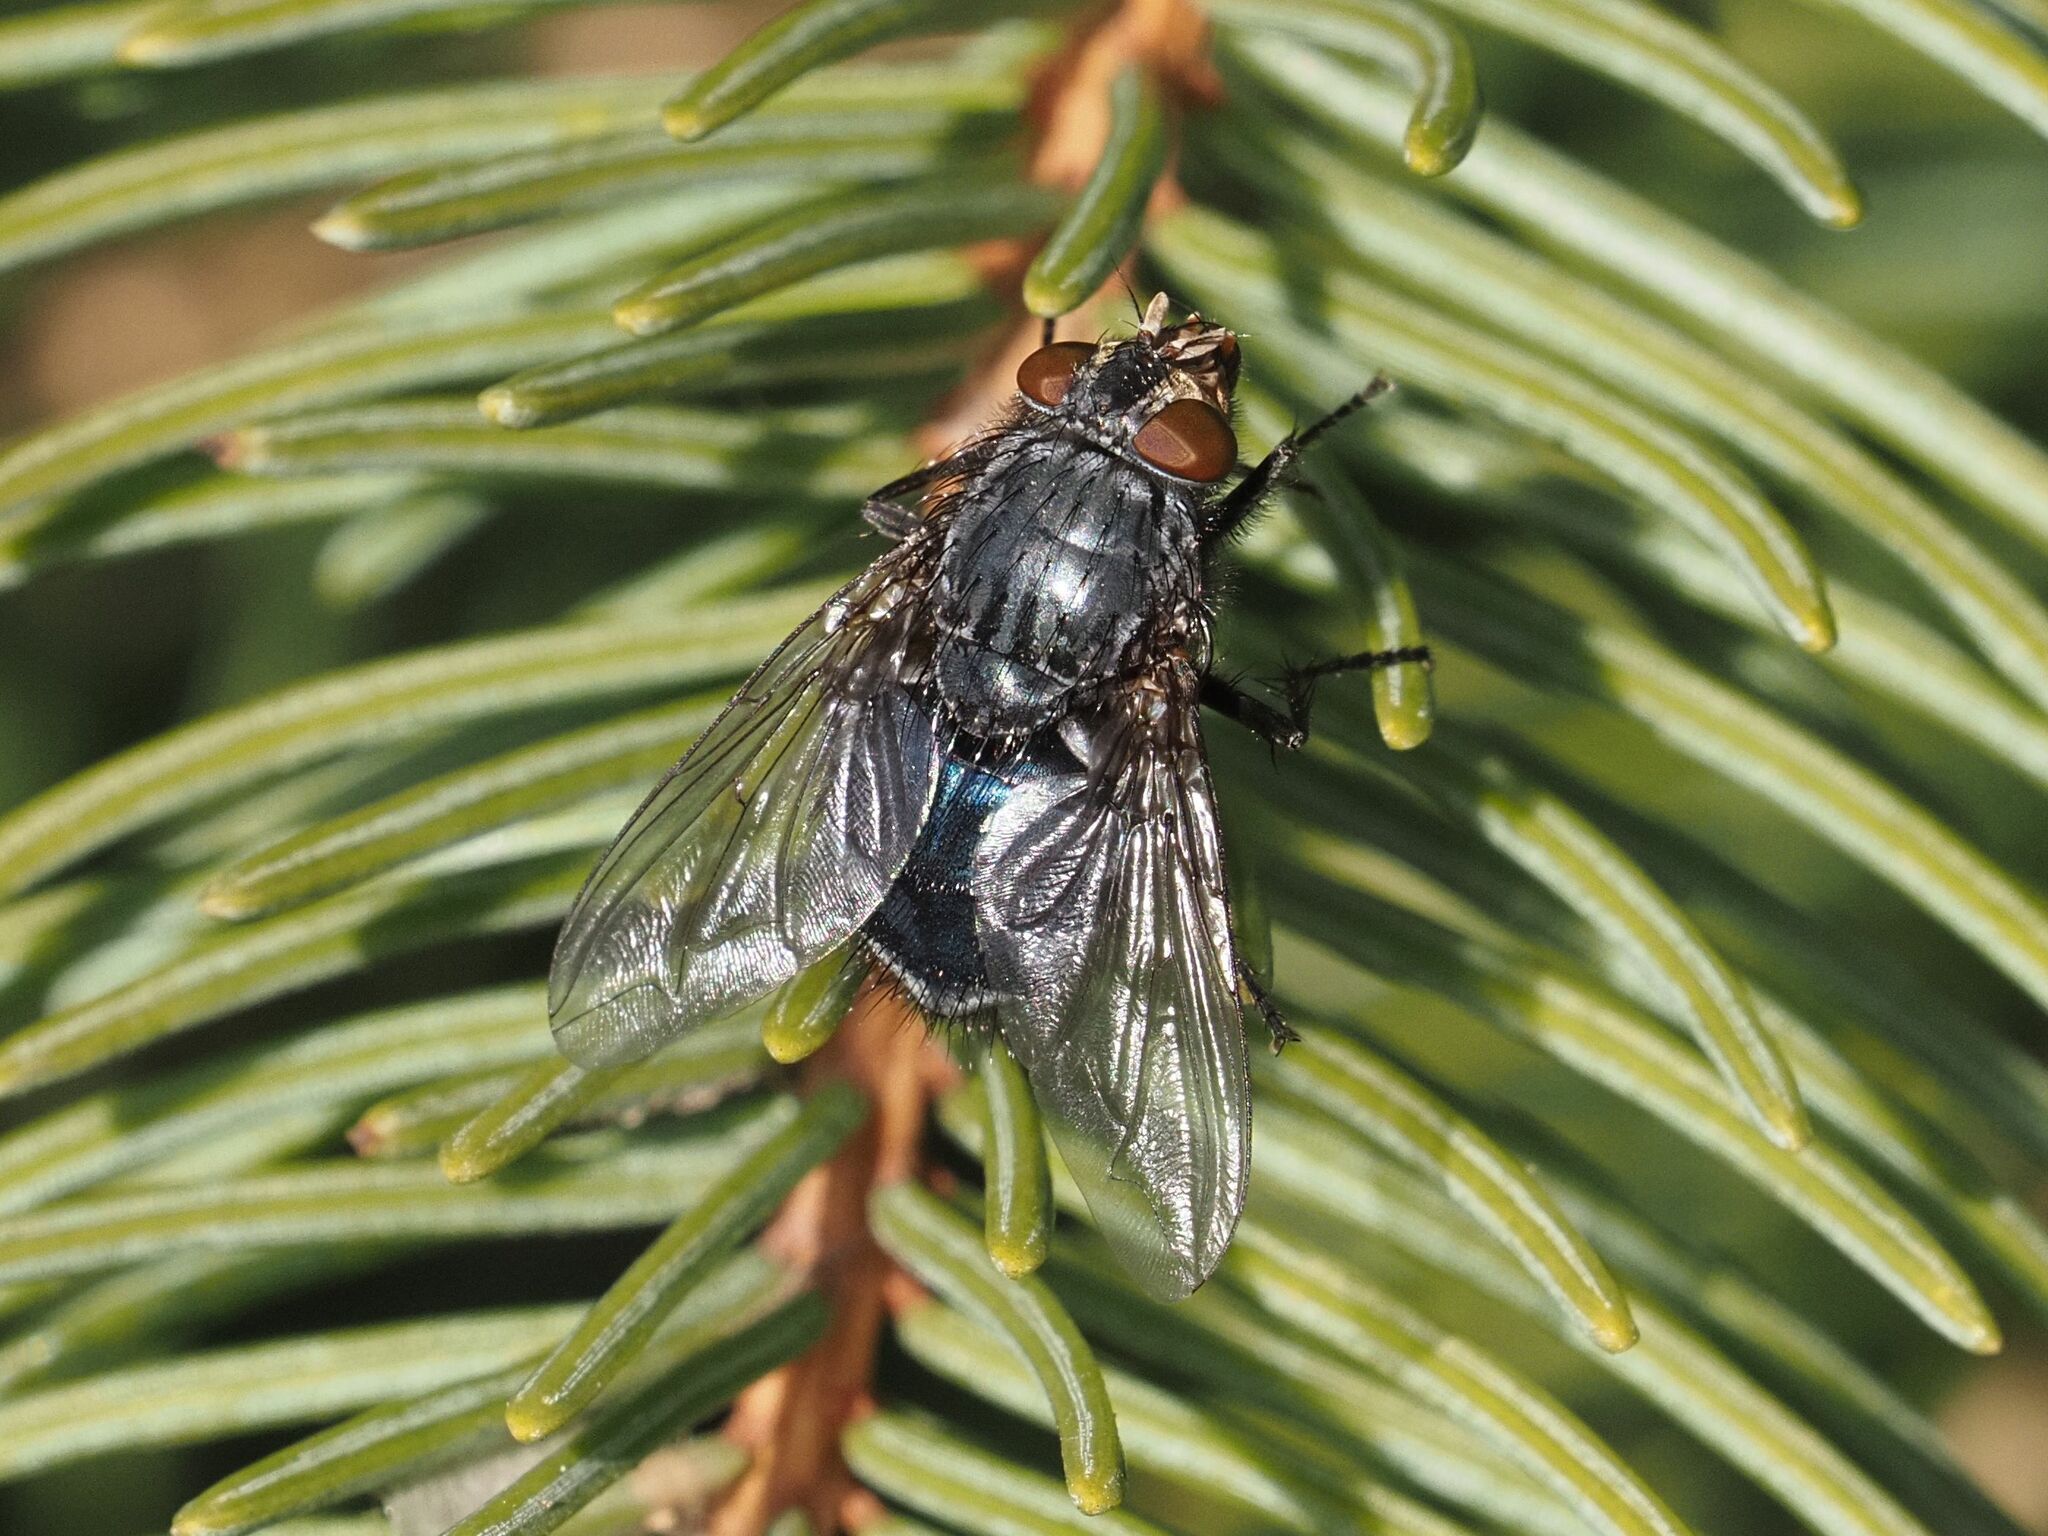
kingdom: Animalia
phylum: Arthropoda
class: Insecta
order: Diptera
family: Calliphoridae
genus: Calliphora
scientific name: Calliphora vicina
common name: Common blow flie
